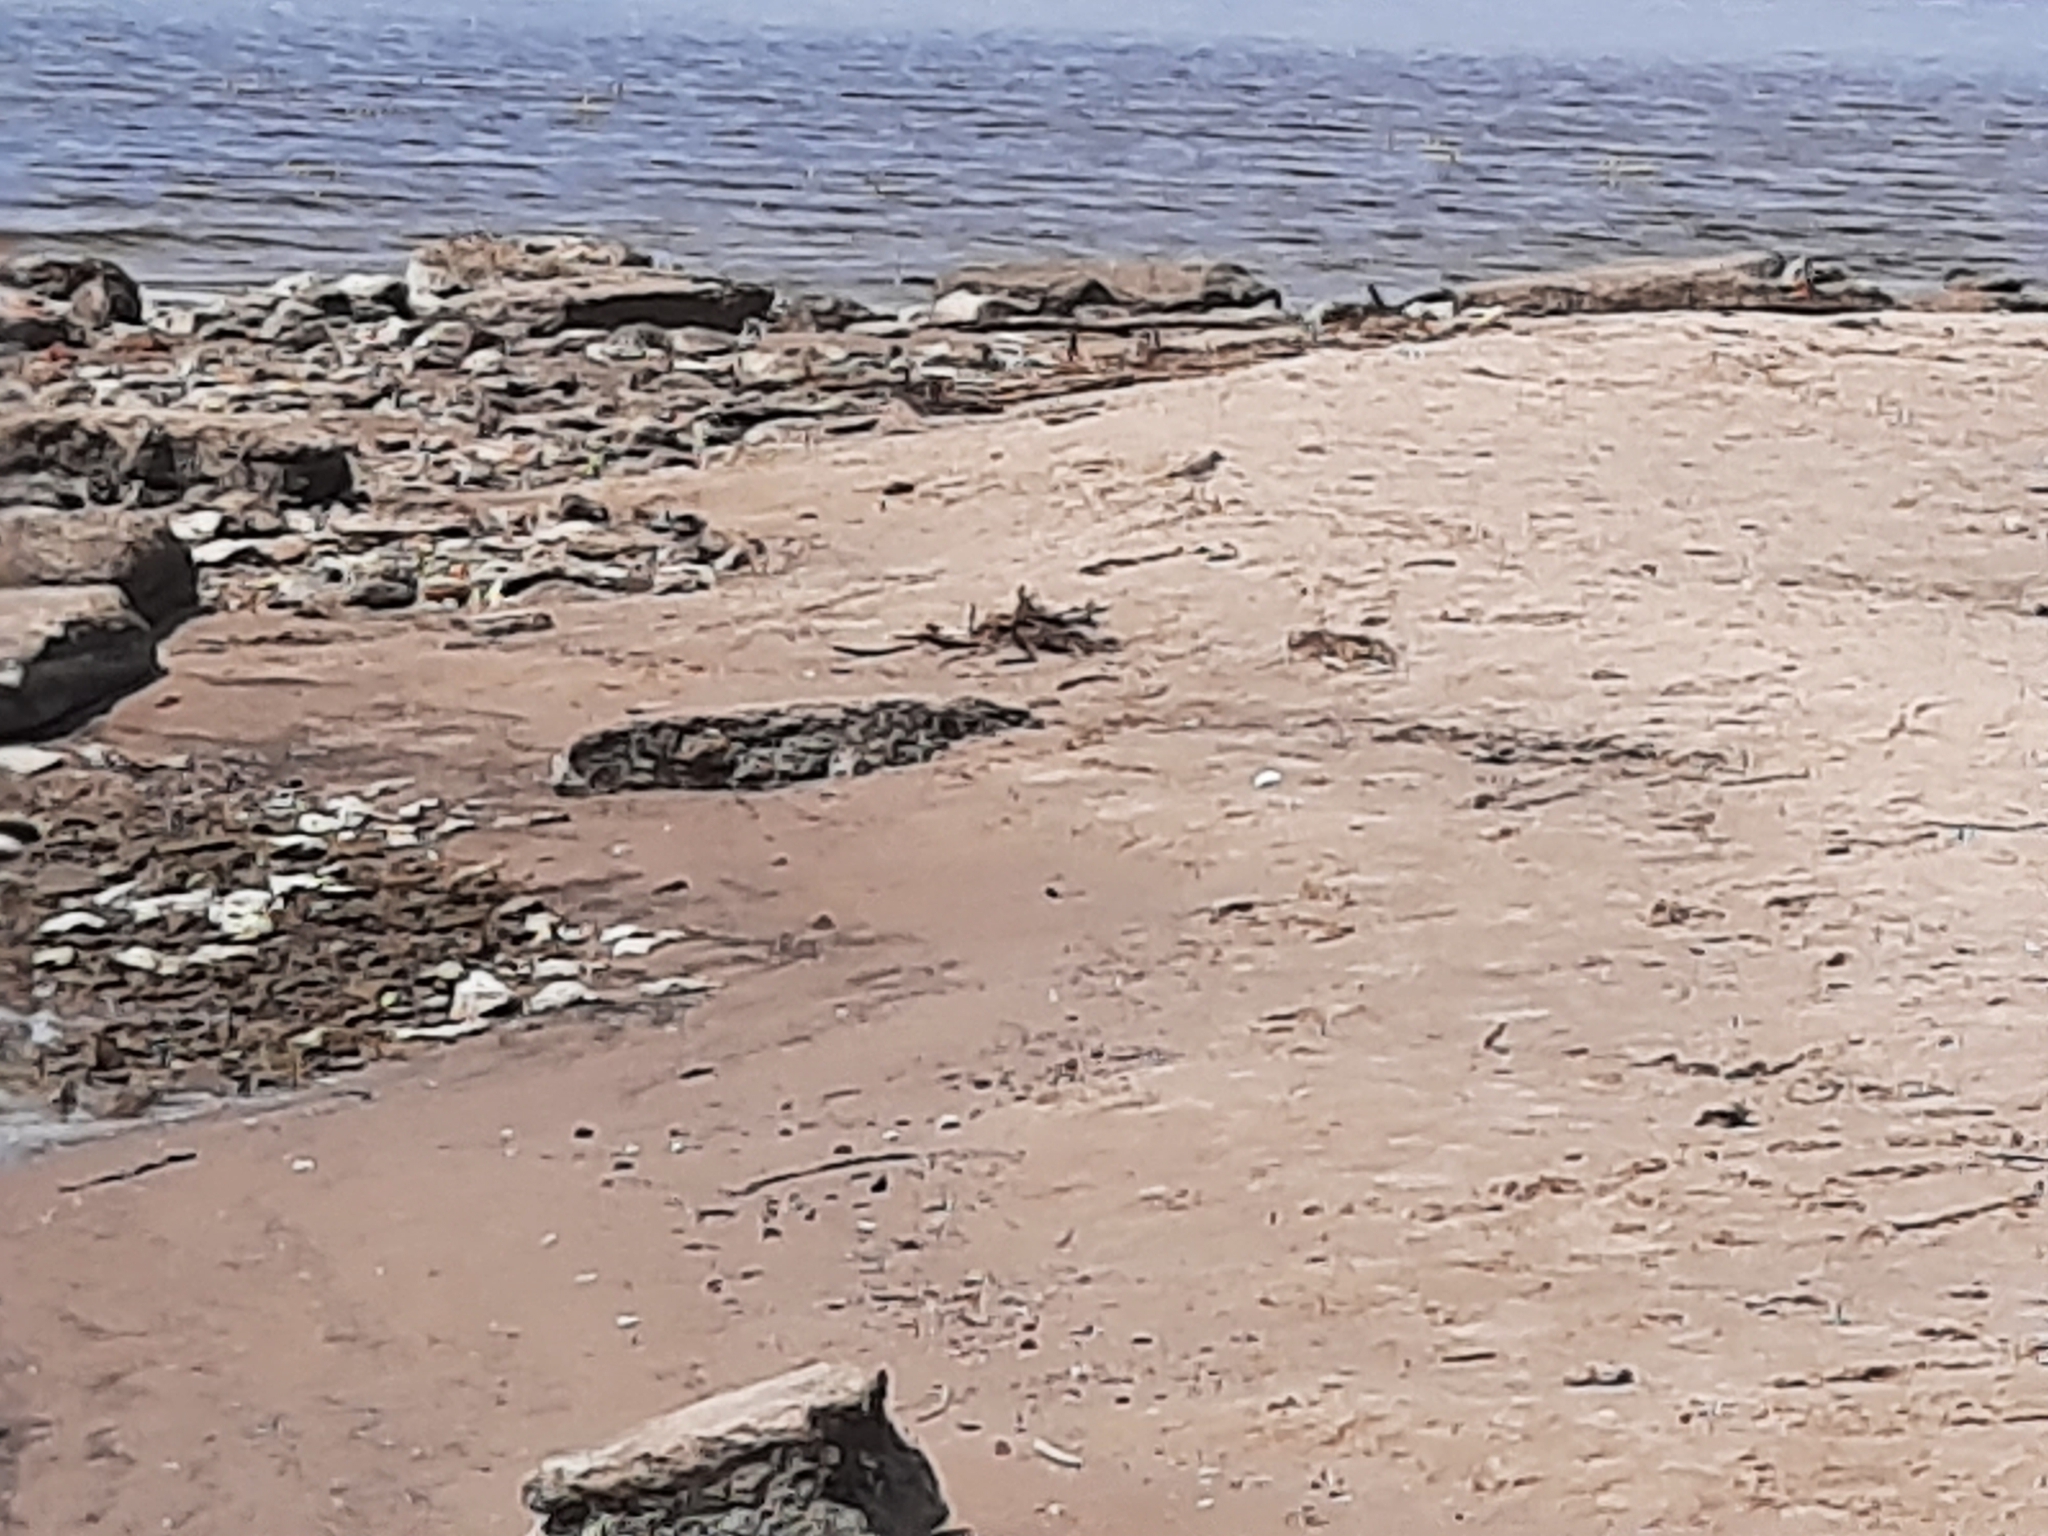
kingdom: Animalia
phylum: Chordata
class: Aves
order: Charadriiformes
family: Charadriidae
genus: Charadrius
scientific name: Charadrius dubius
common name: Little ringed plover
